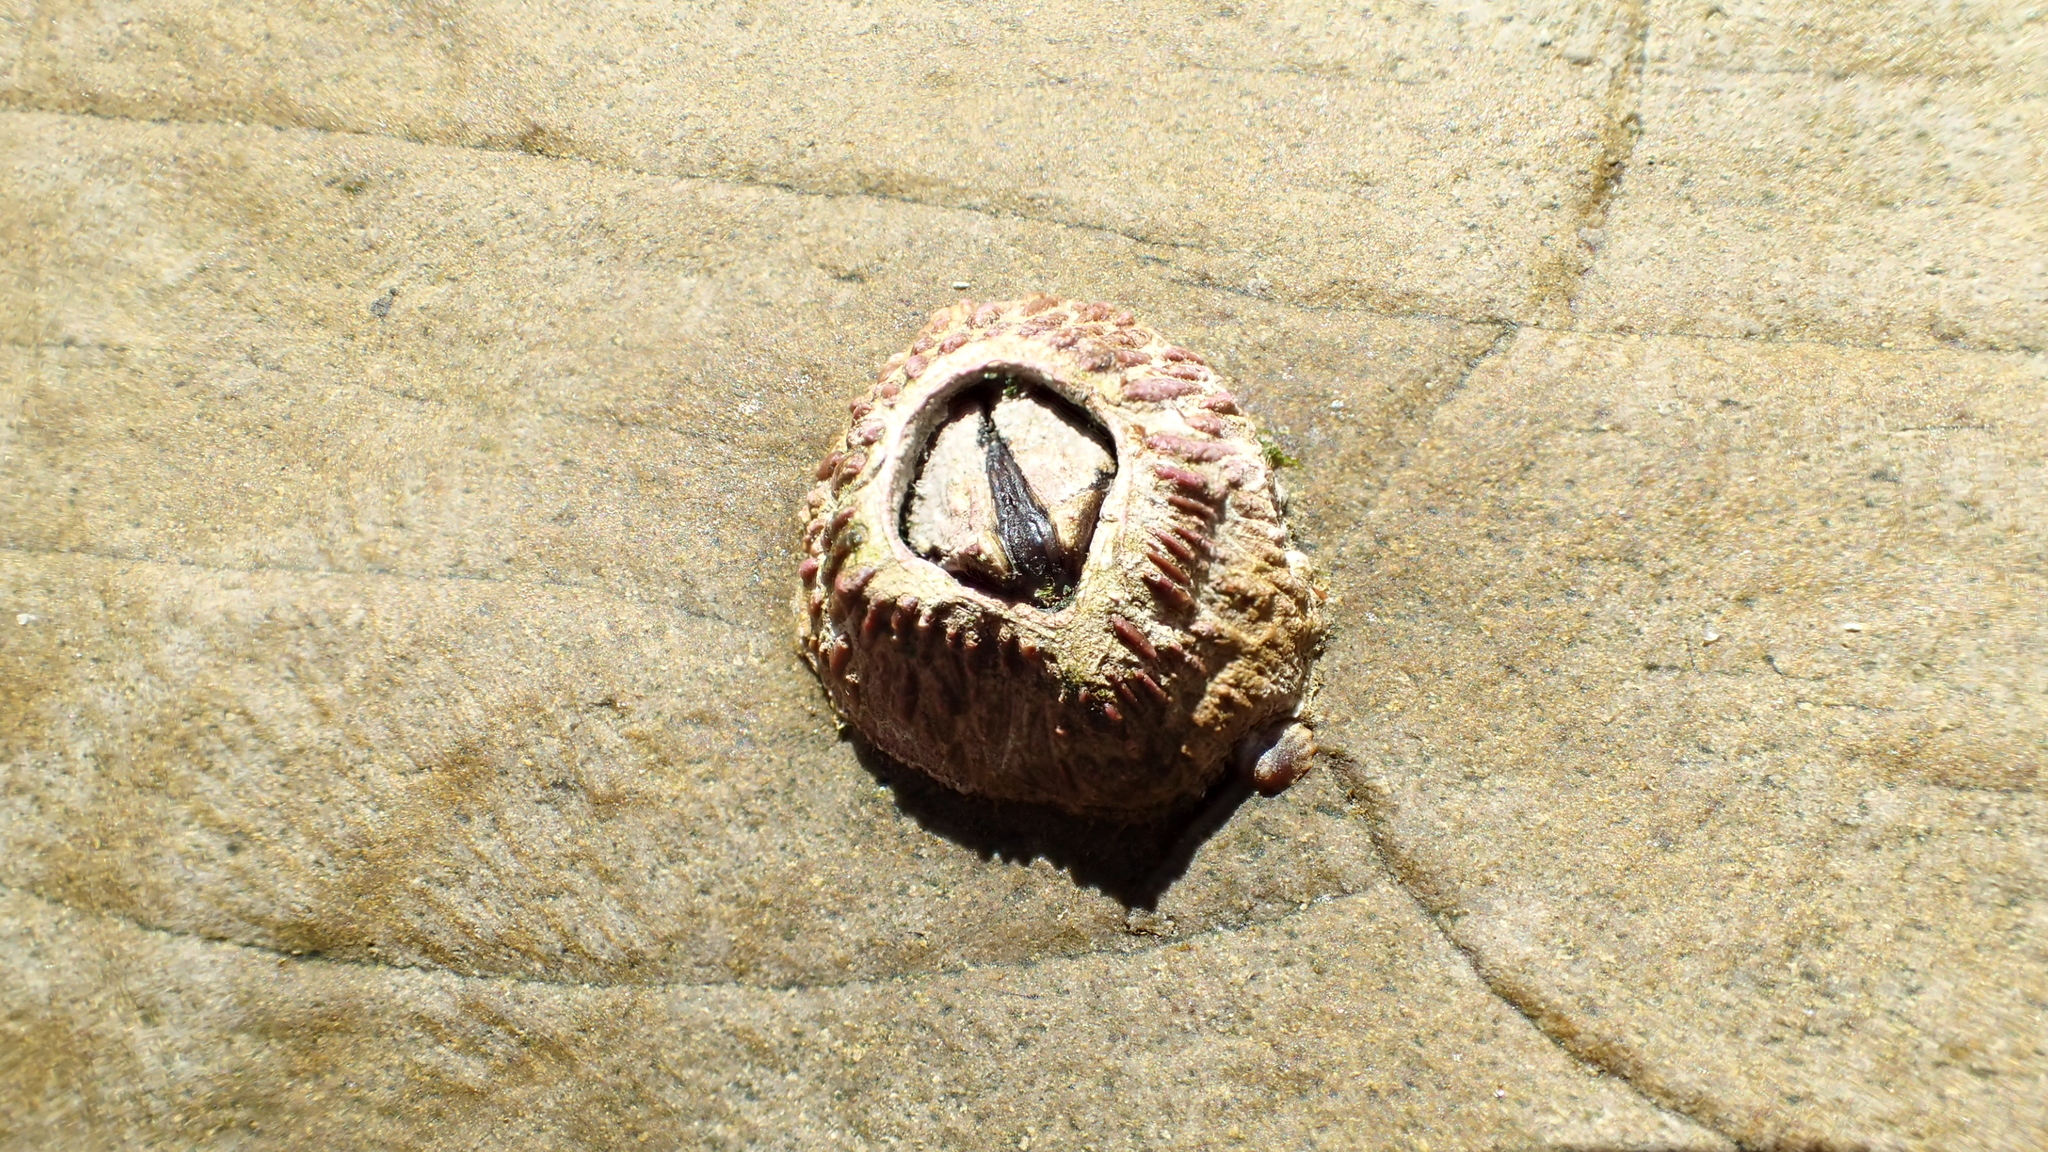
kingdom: Animalia
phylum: Arthropoda
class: Maxillopoda
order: Sessilia
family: Tetraclitidae
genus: Tetraclita
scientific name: Tetraclita rubescens
